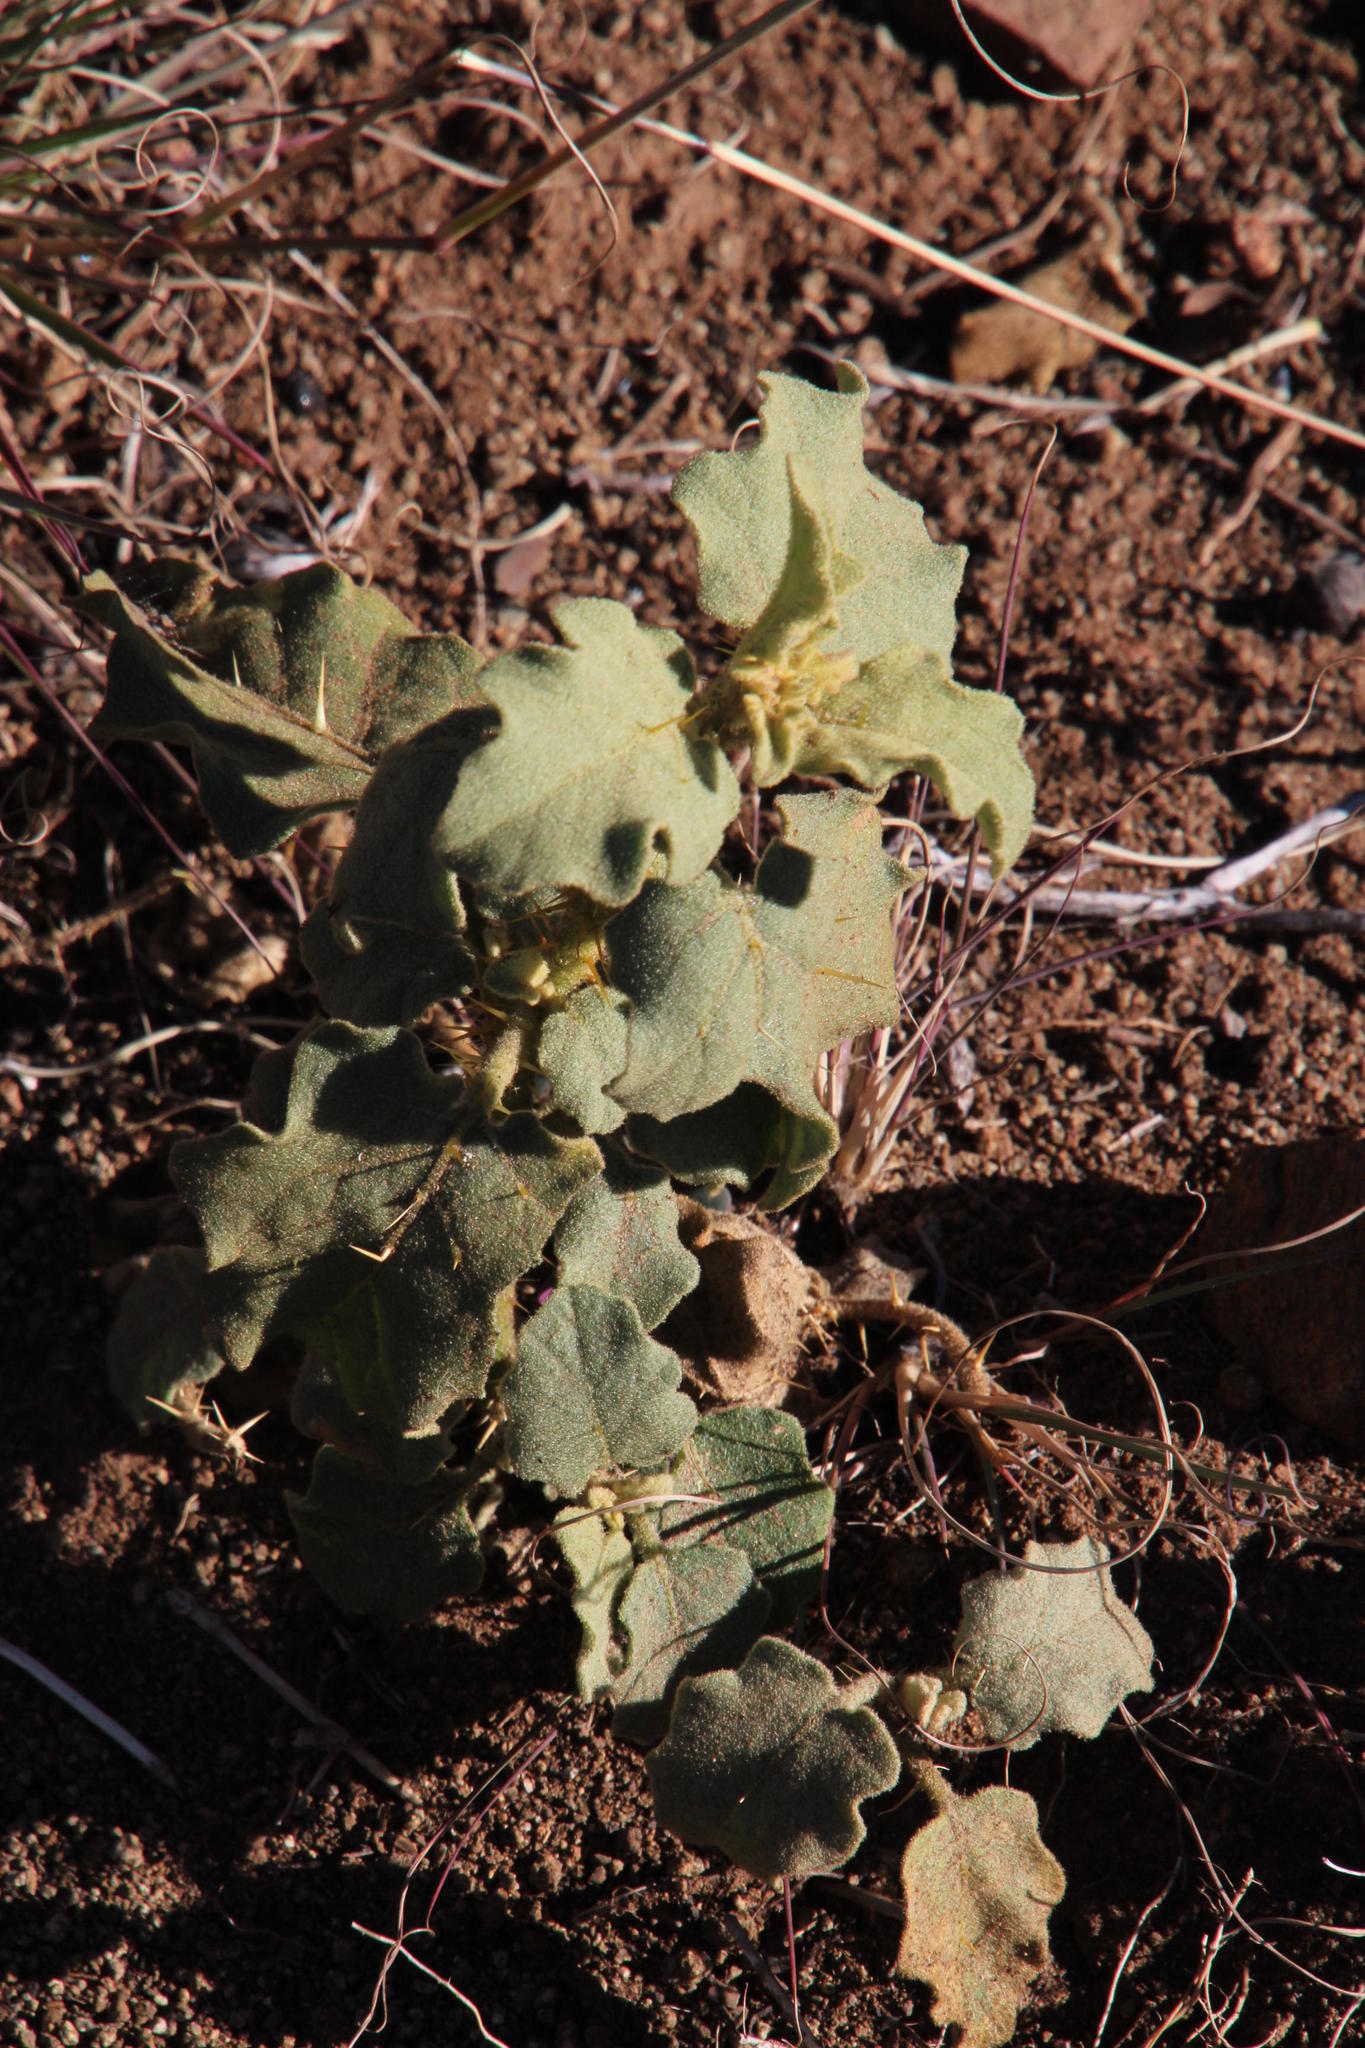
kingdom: Plantae
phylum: Tracheophyta
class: Magnoliopsida
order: Solanales
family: Solanaceae
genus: Solanum
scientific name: Solanum tomentosum
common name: Wild aubergine
